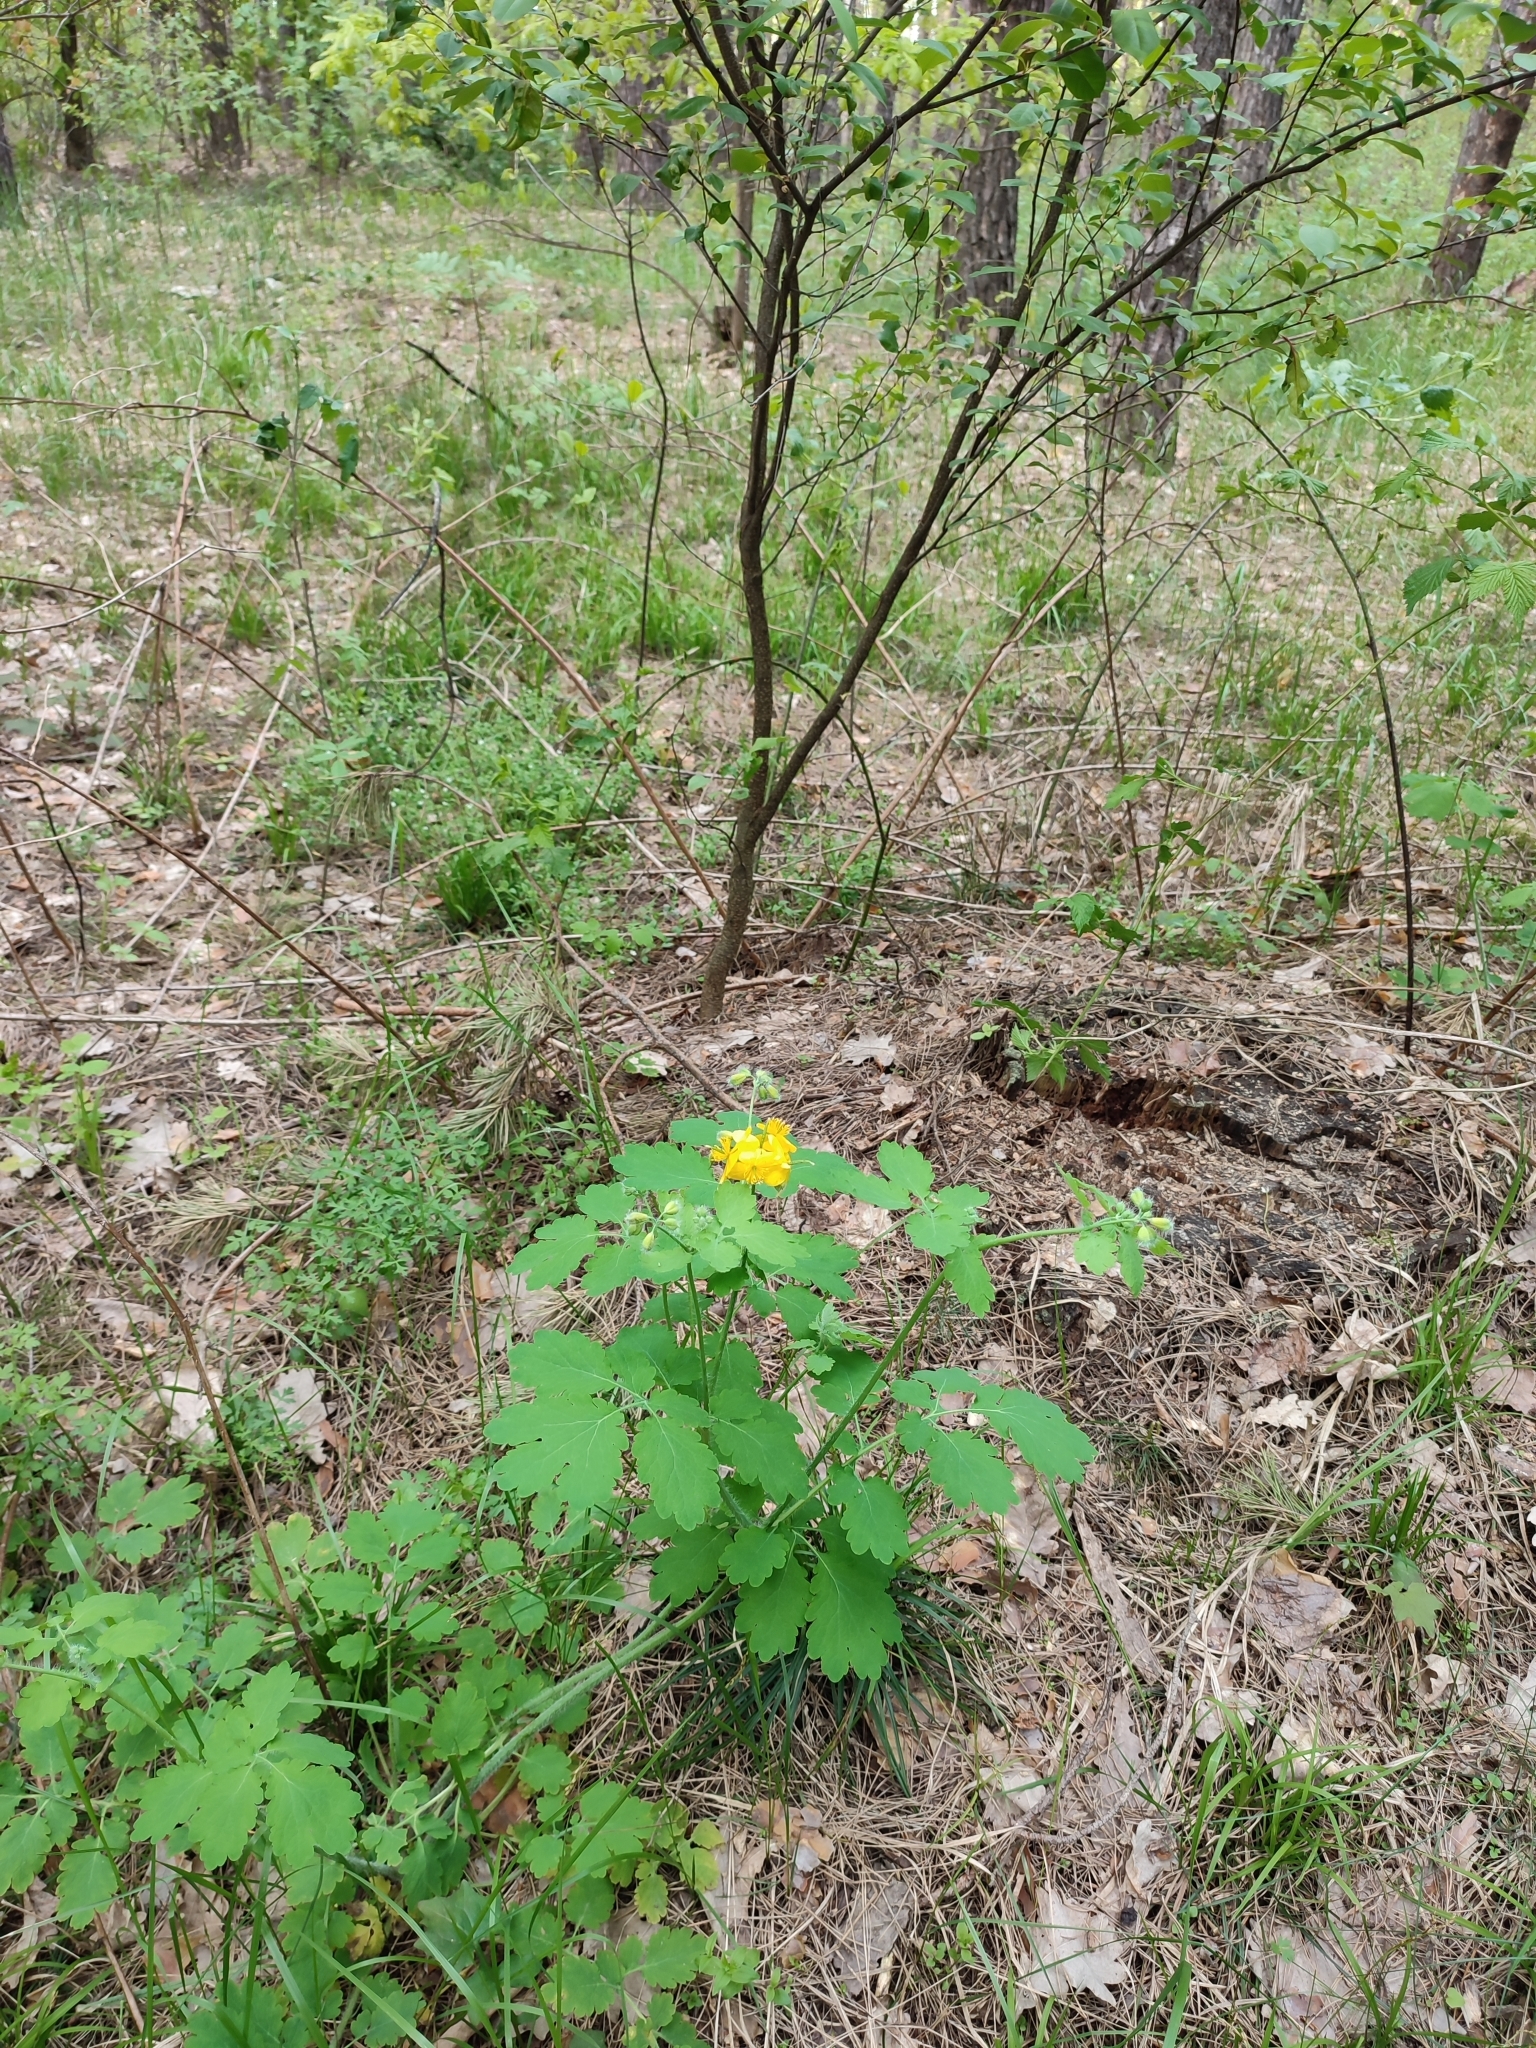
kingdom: Plantae
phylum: Tracheophyta
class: Magnoliopsida
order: Ranunculales
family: Papaveraceae
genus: Chelidonium
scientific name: Chelidonium majus
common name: Greater celandine
